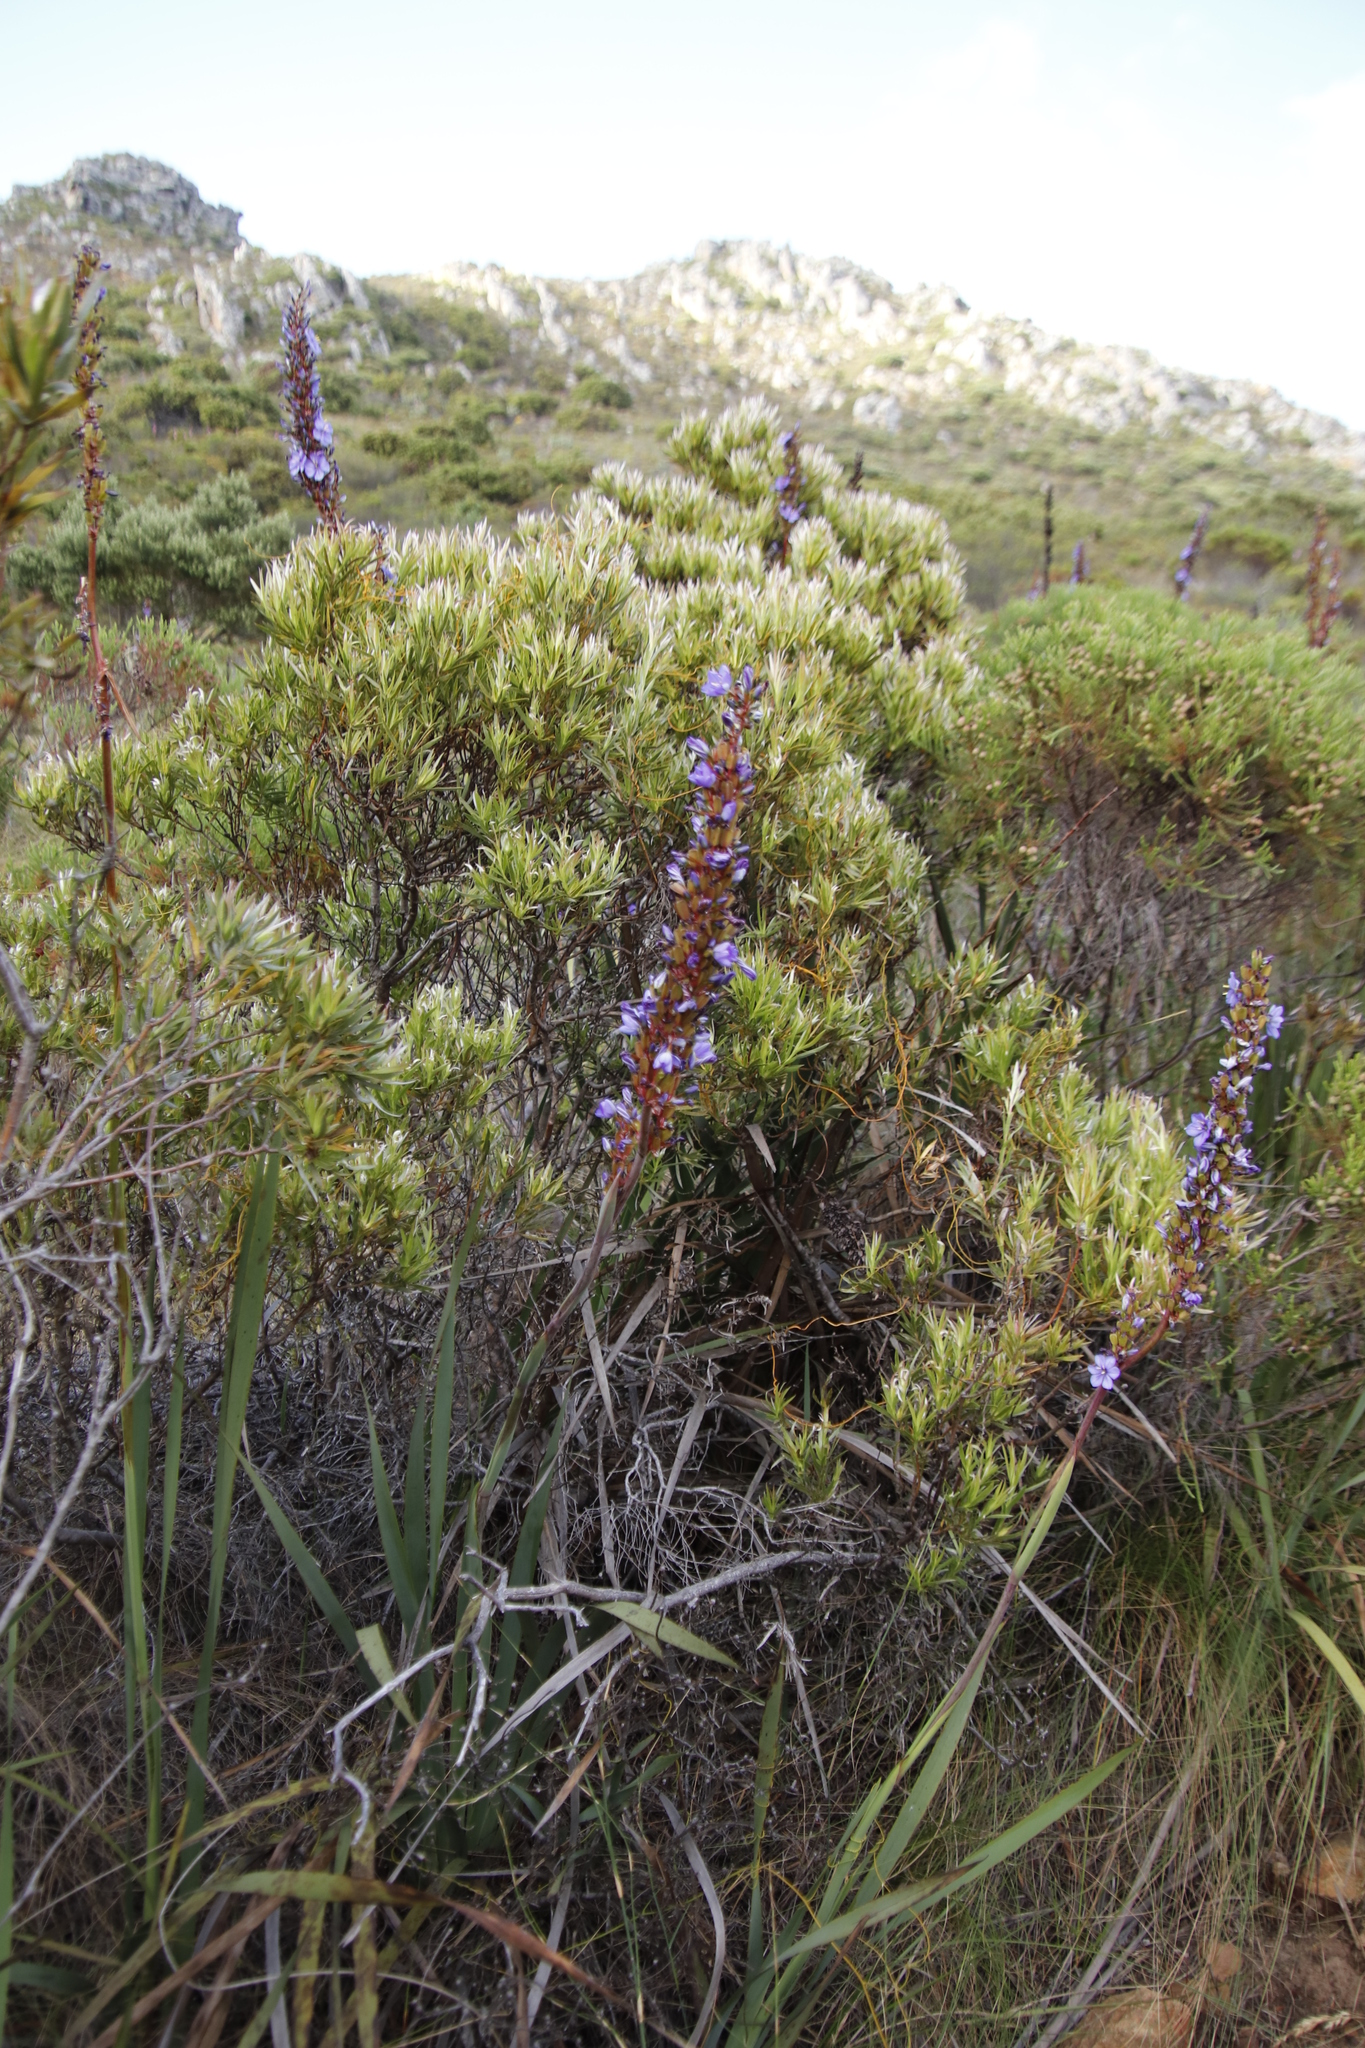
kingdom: Plantae
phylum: Tracheophyta
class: Magnoliopsida
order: Proteales
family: Proteaceae
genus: Leucadendron
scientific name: Leucadendron xanthoconus
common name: Sickle-leaf conebush
